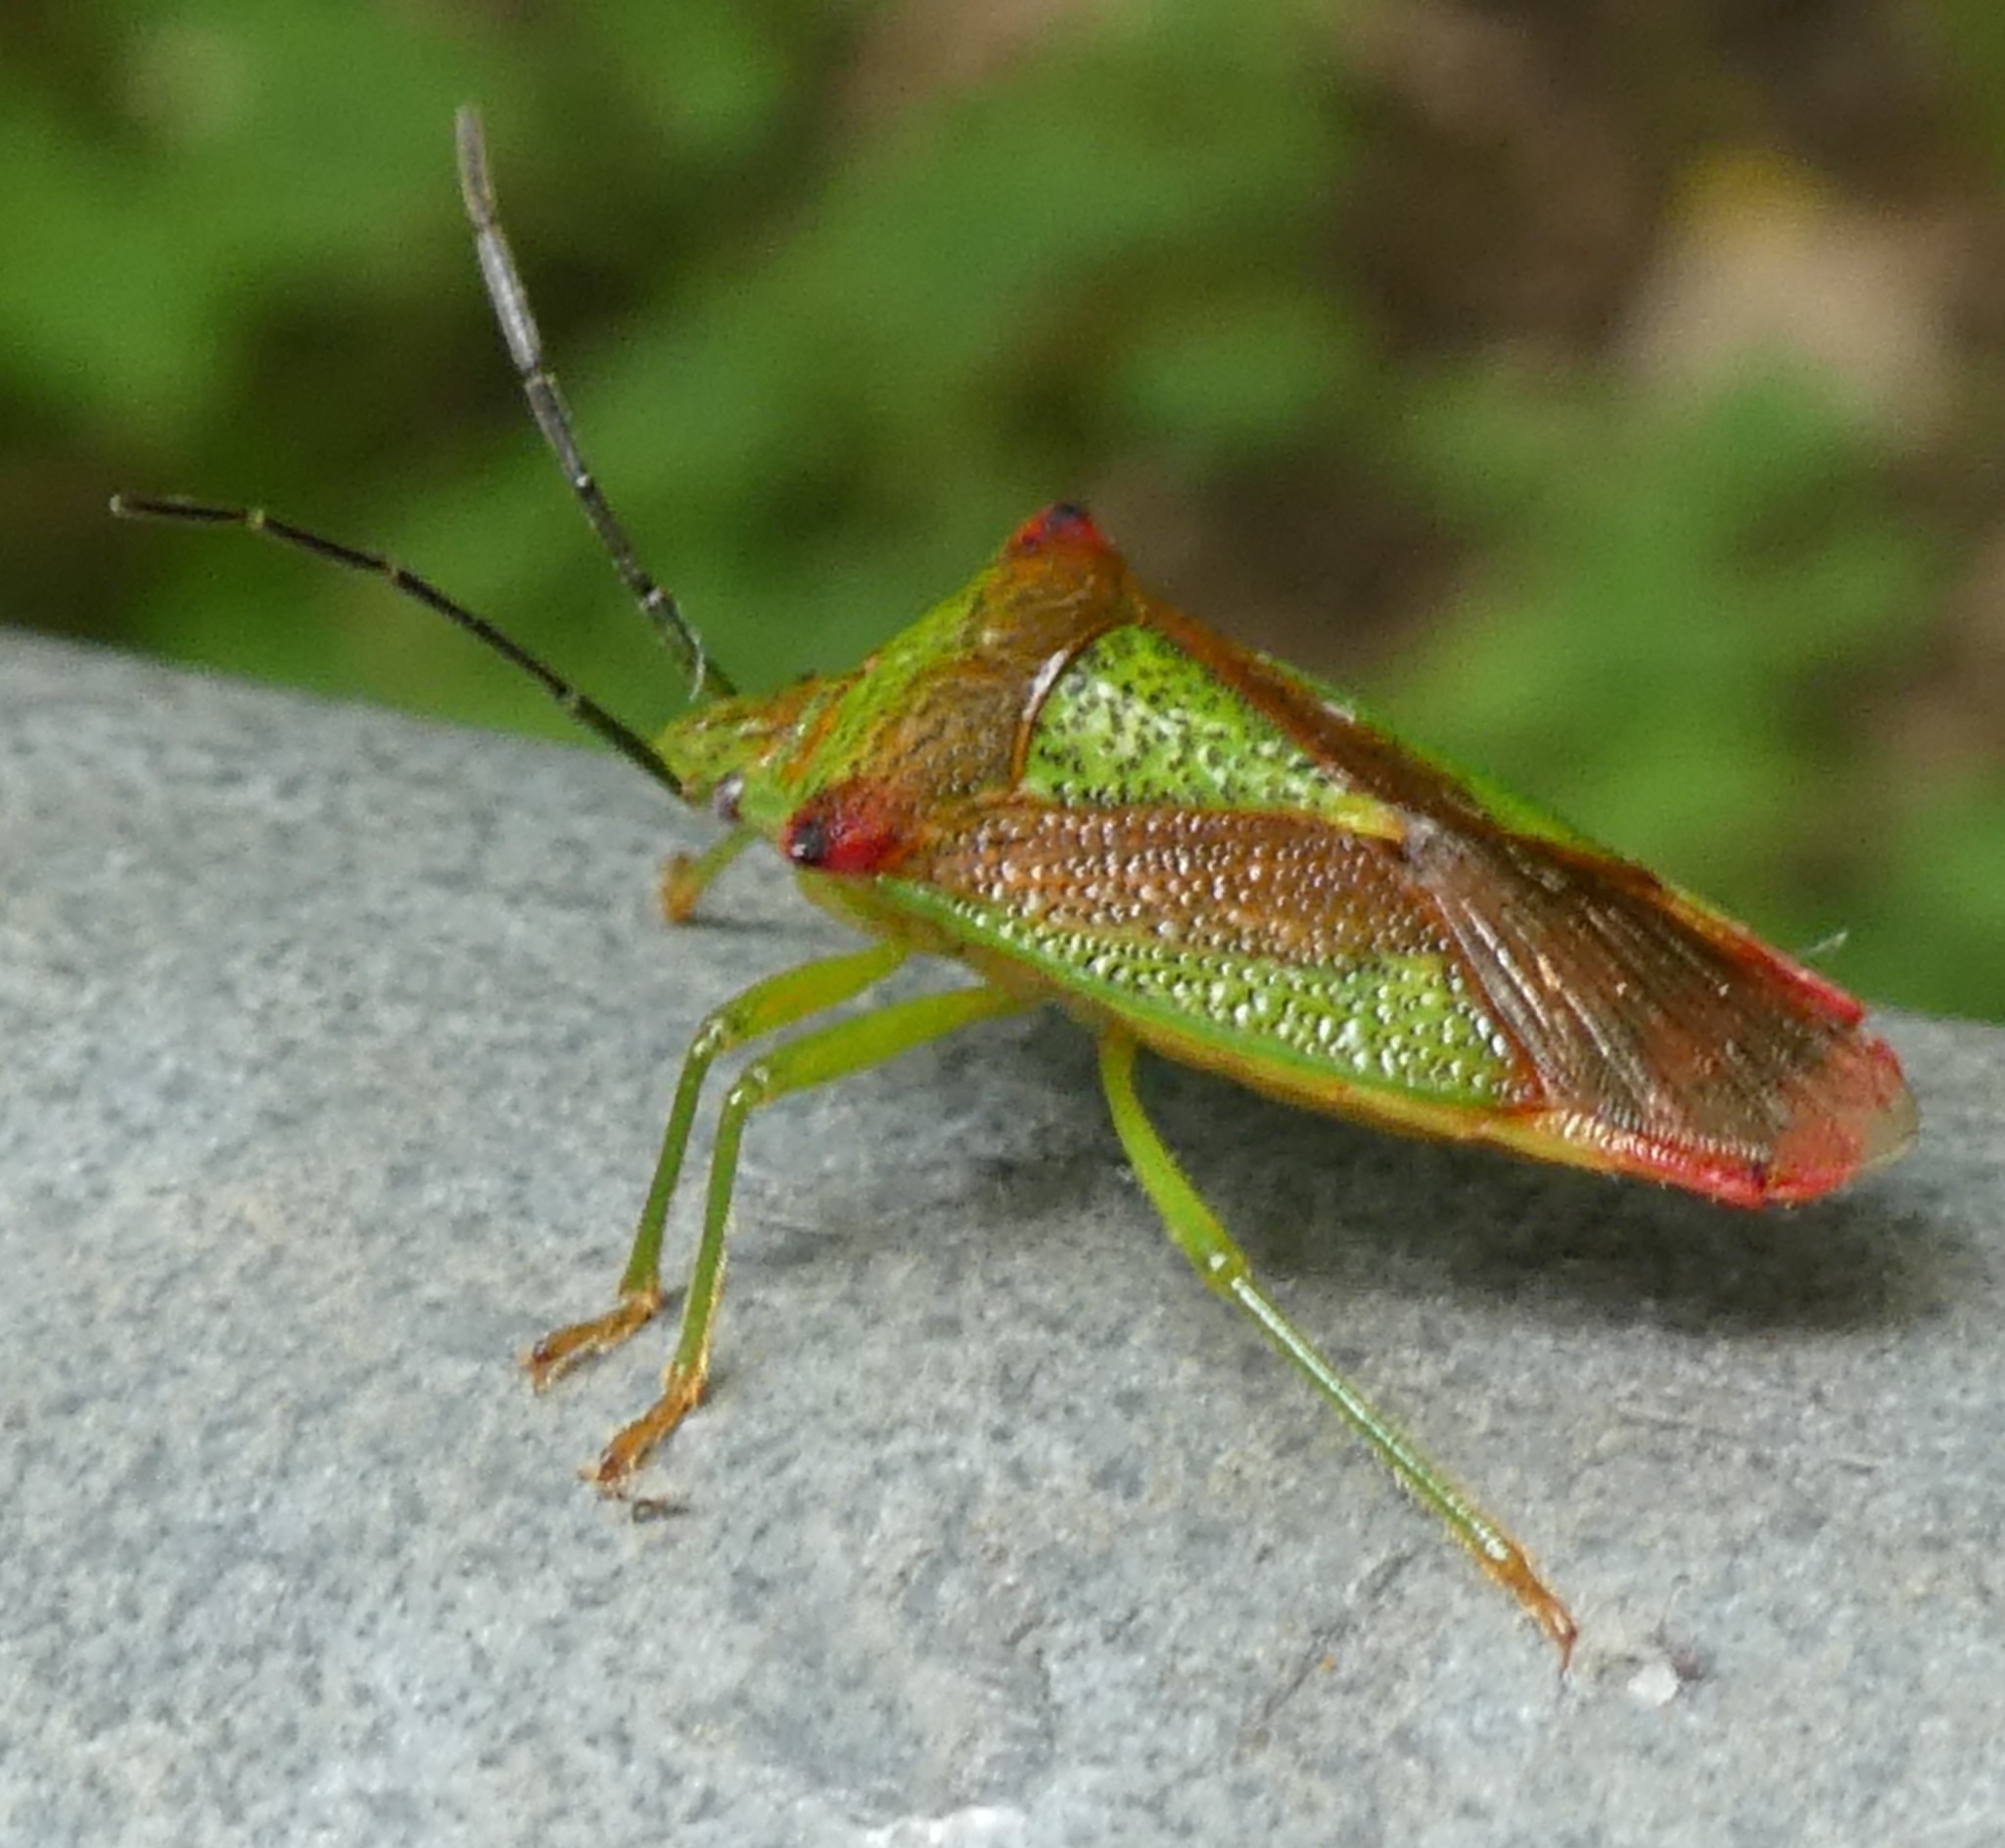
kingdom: Animalia
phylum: Arthropoda
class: Insecta
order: Hemiptera
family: Acanthosomatidae
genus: Acanthosoma
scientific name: Acanthosoma haemorrhoidale
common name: Hawthorn shieldbug
